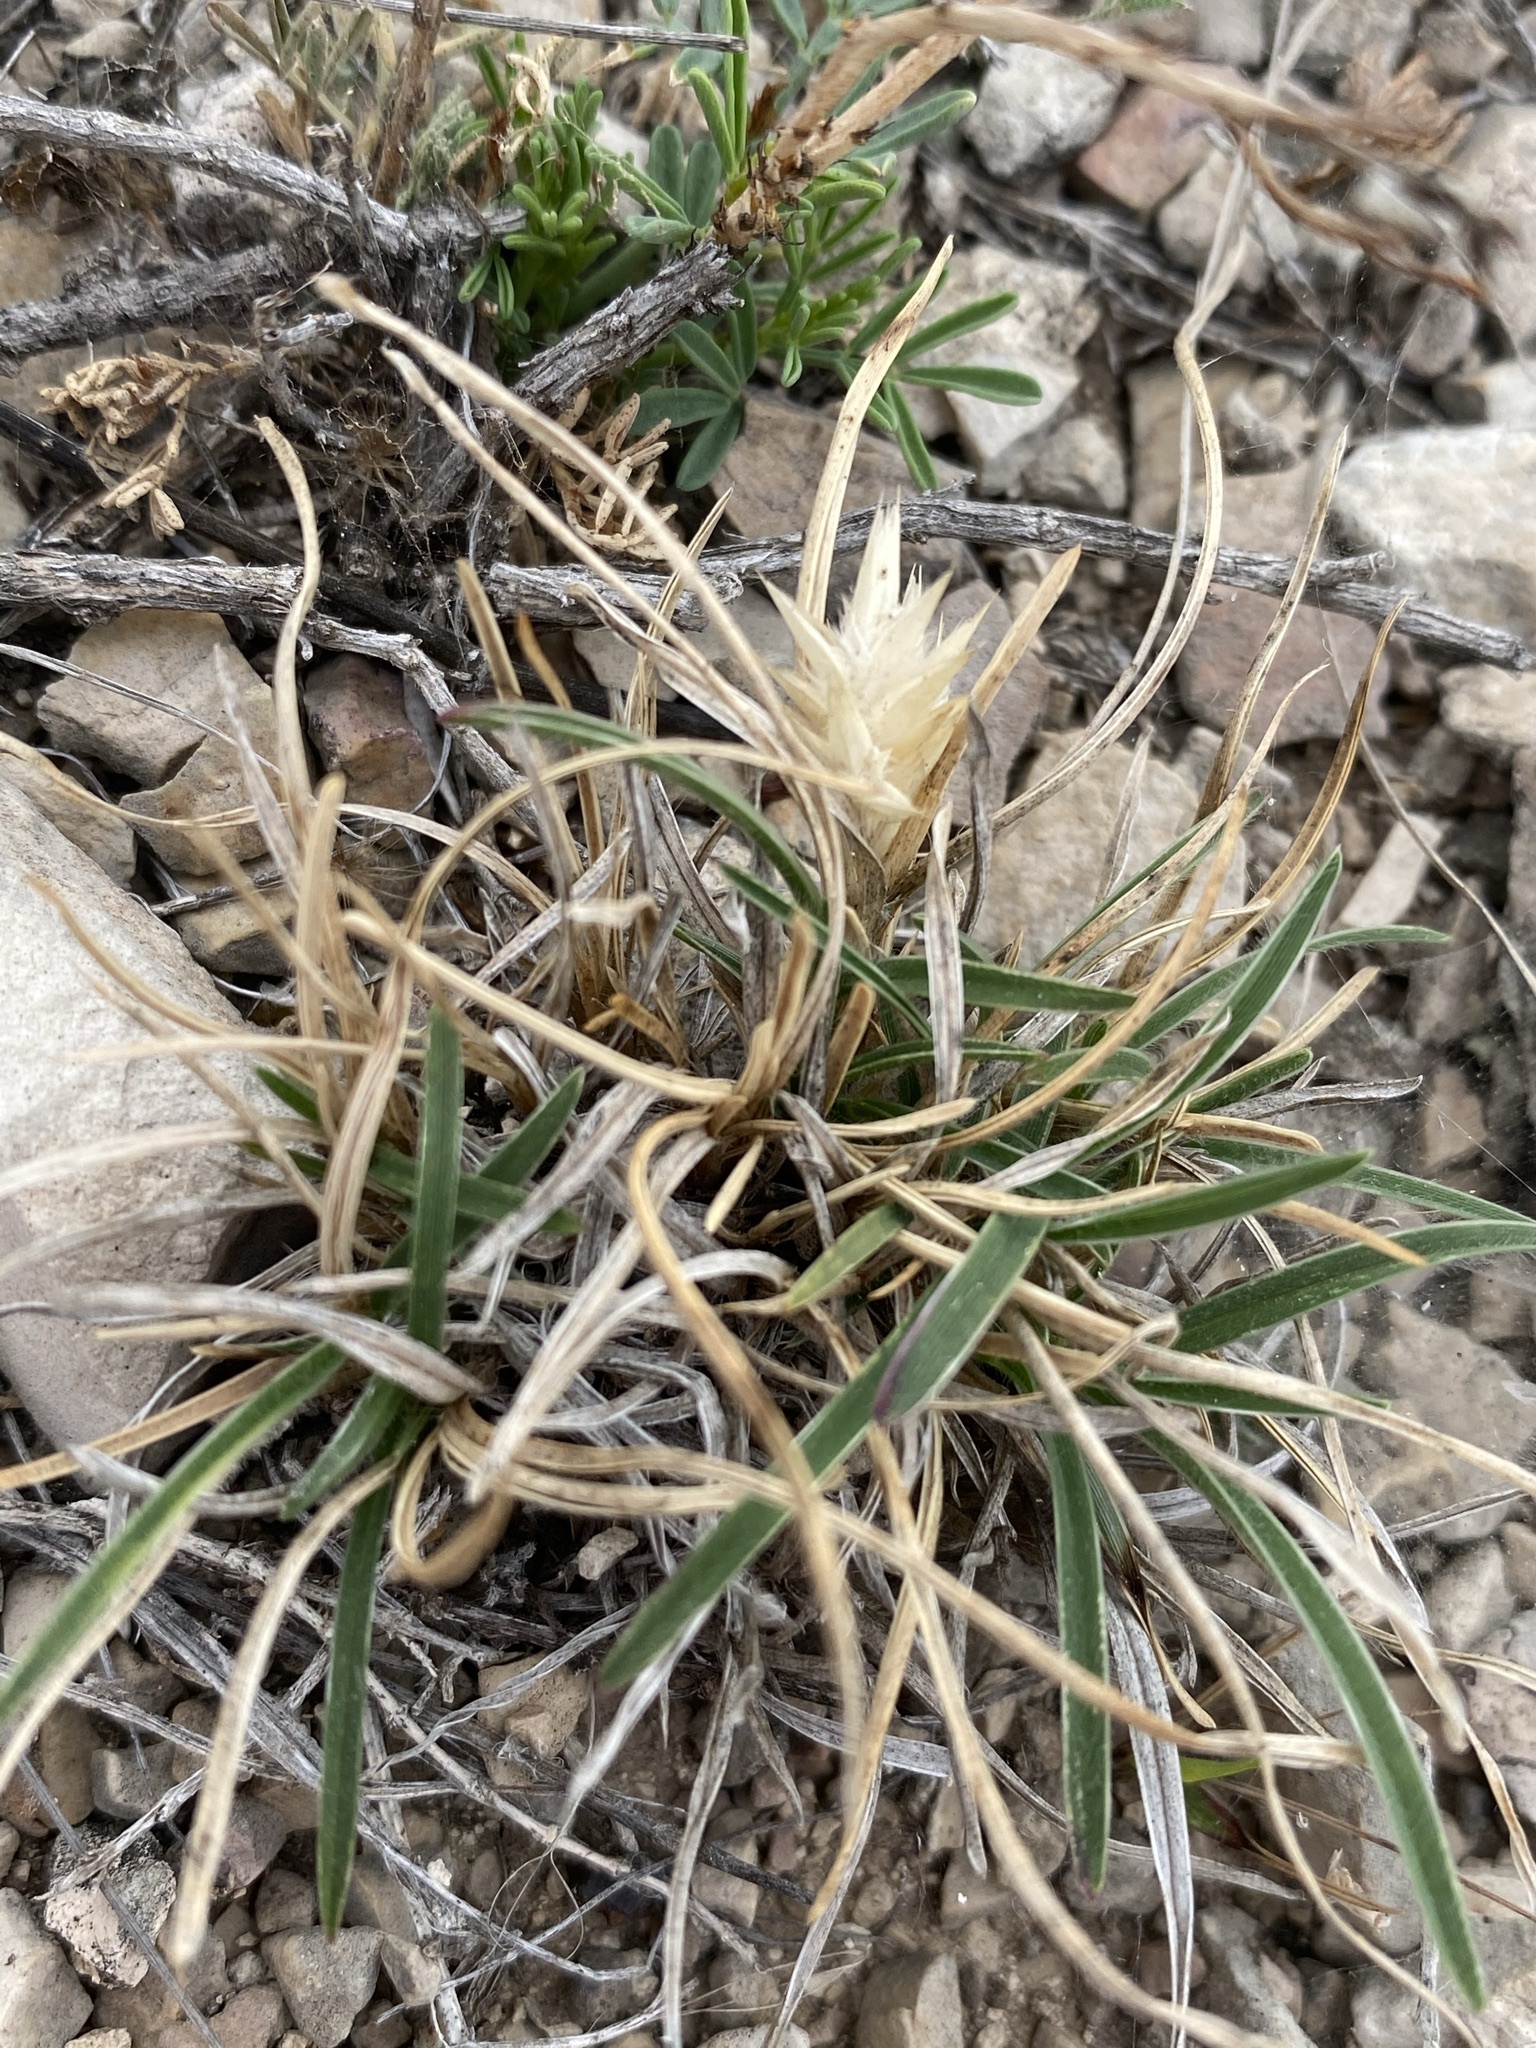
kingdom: Plantae
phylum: Tracheophyta
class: Liliopsida
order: Poales
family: Poaceae
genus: Erioneuron
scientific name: Erioneuron pilosum
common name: Hairy woolly grass
